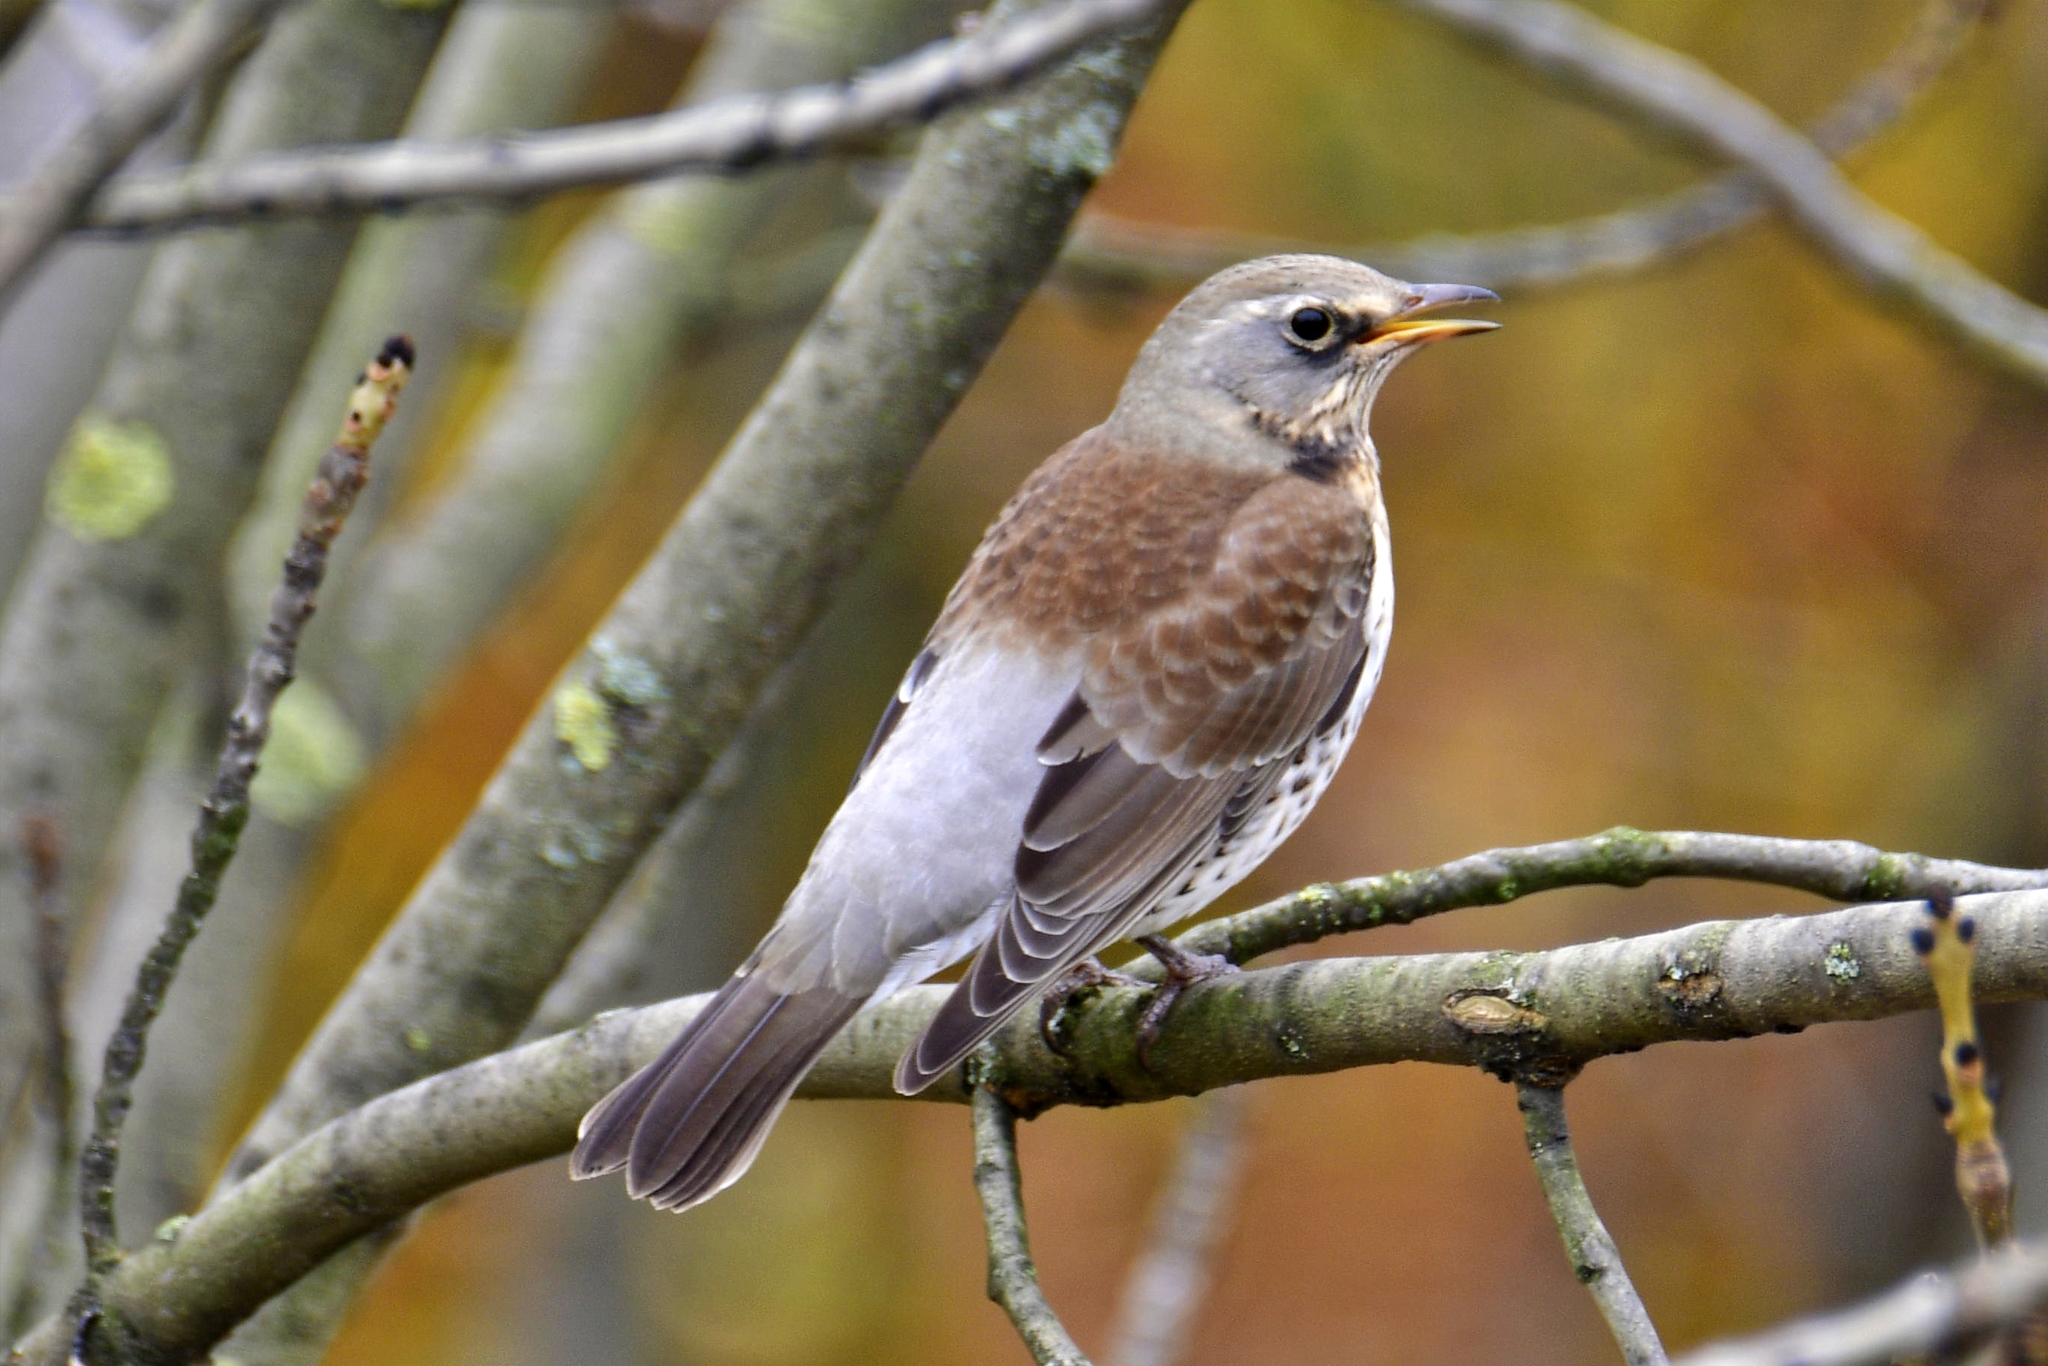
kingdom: Animalia
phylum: Chordata
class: Aves
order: Passeriformes
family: Turdidae
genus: Turdus
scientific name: Turdus pilaris
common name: Fieldfare
